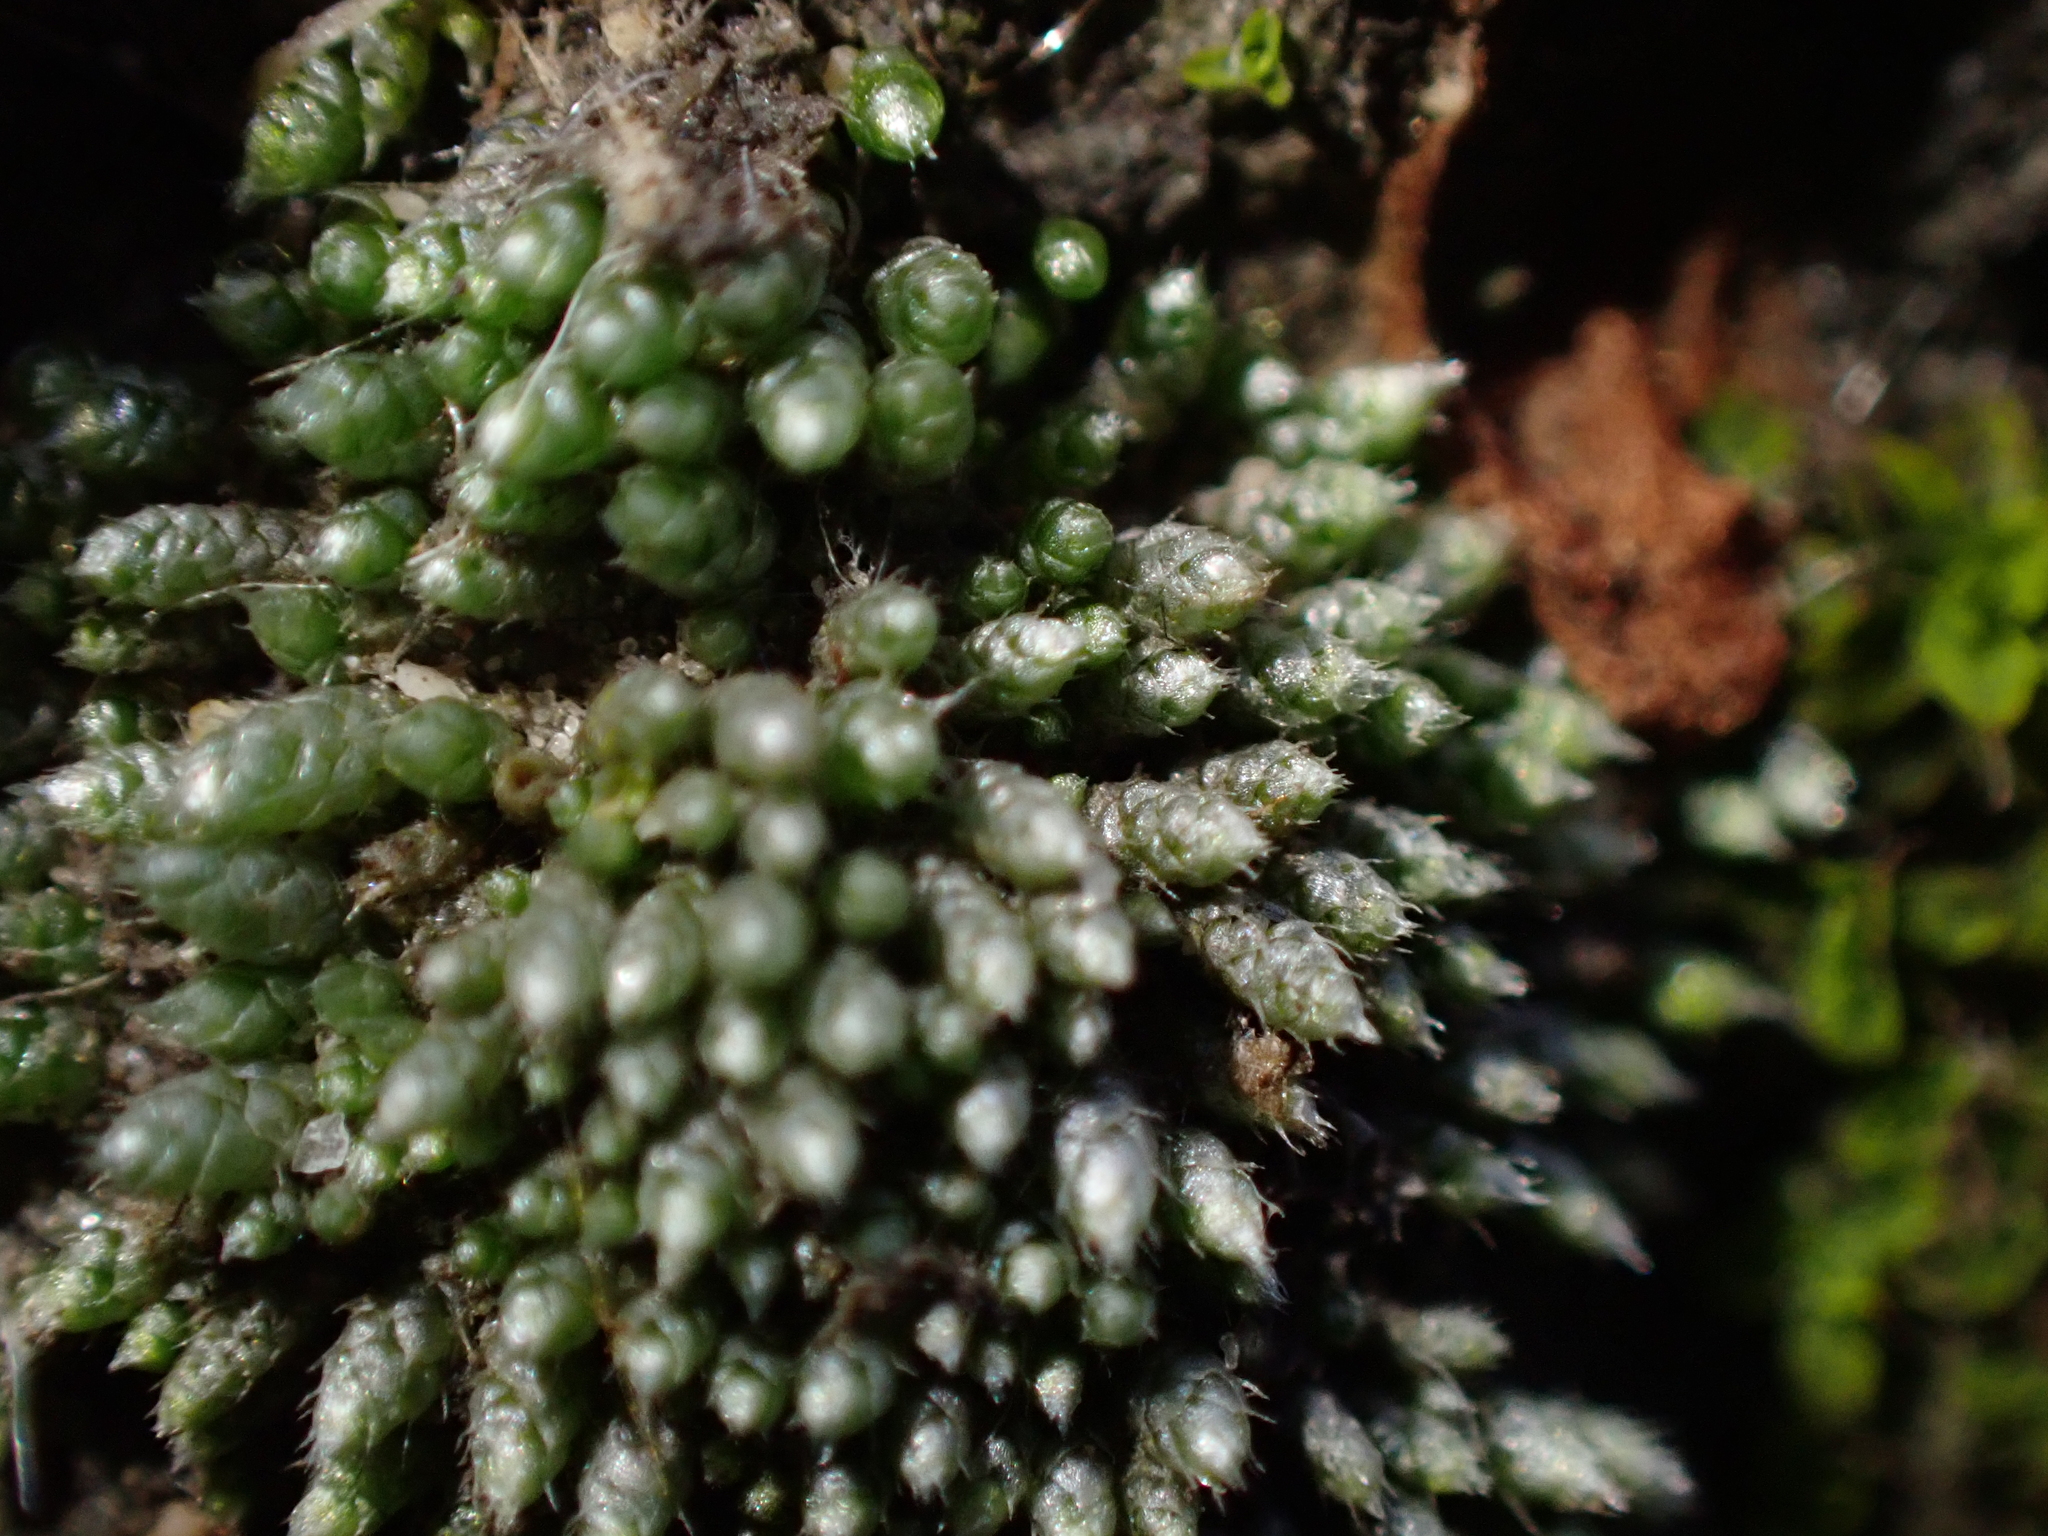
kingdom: Plantae
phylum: Bryophyta
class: Bryopsida
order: Bryales
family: Bryaceae
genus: Bryum
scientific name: Bryum argenteum
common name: Silver-moss
